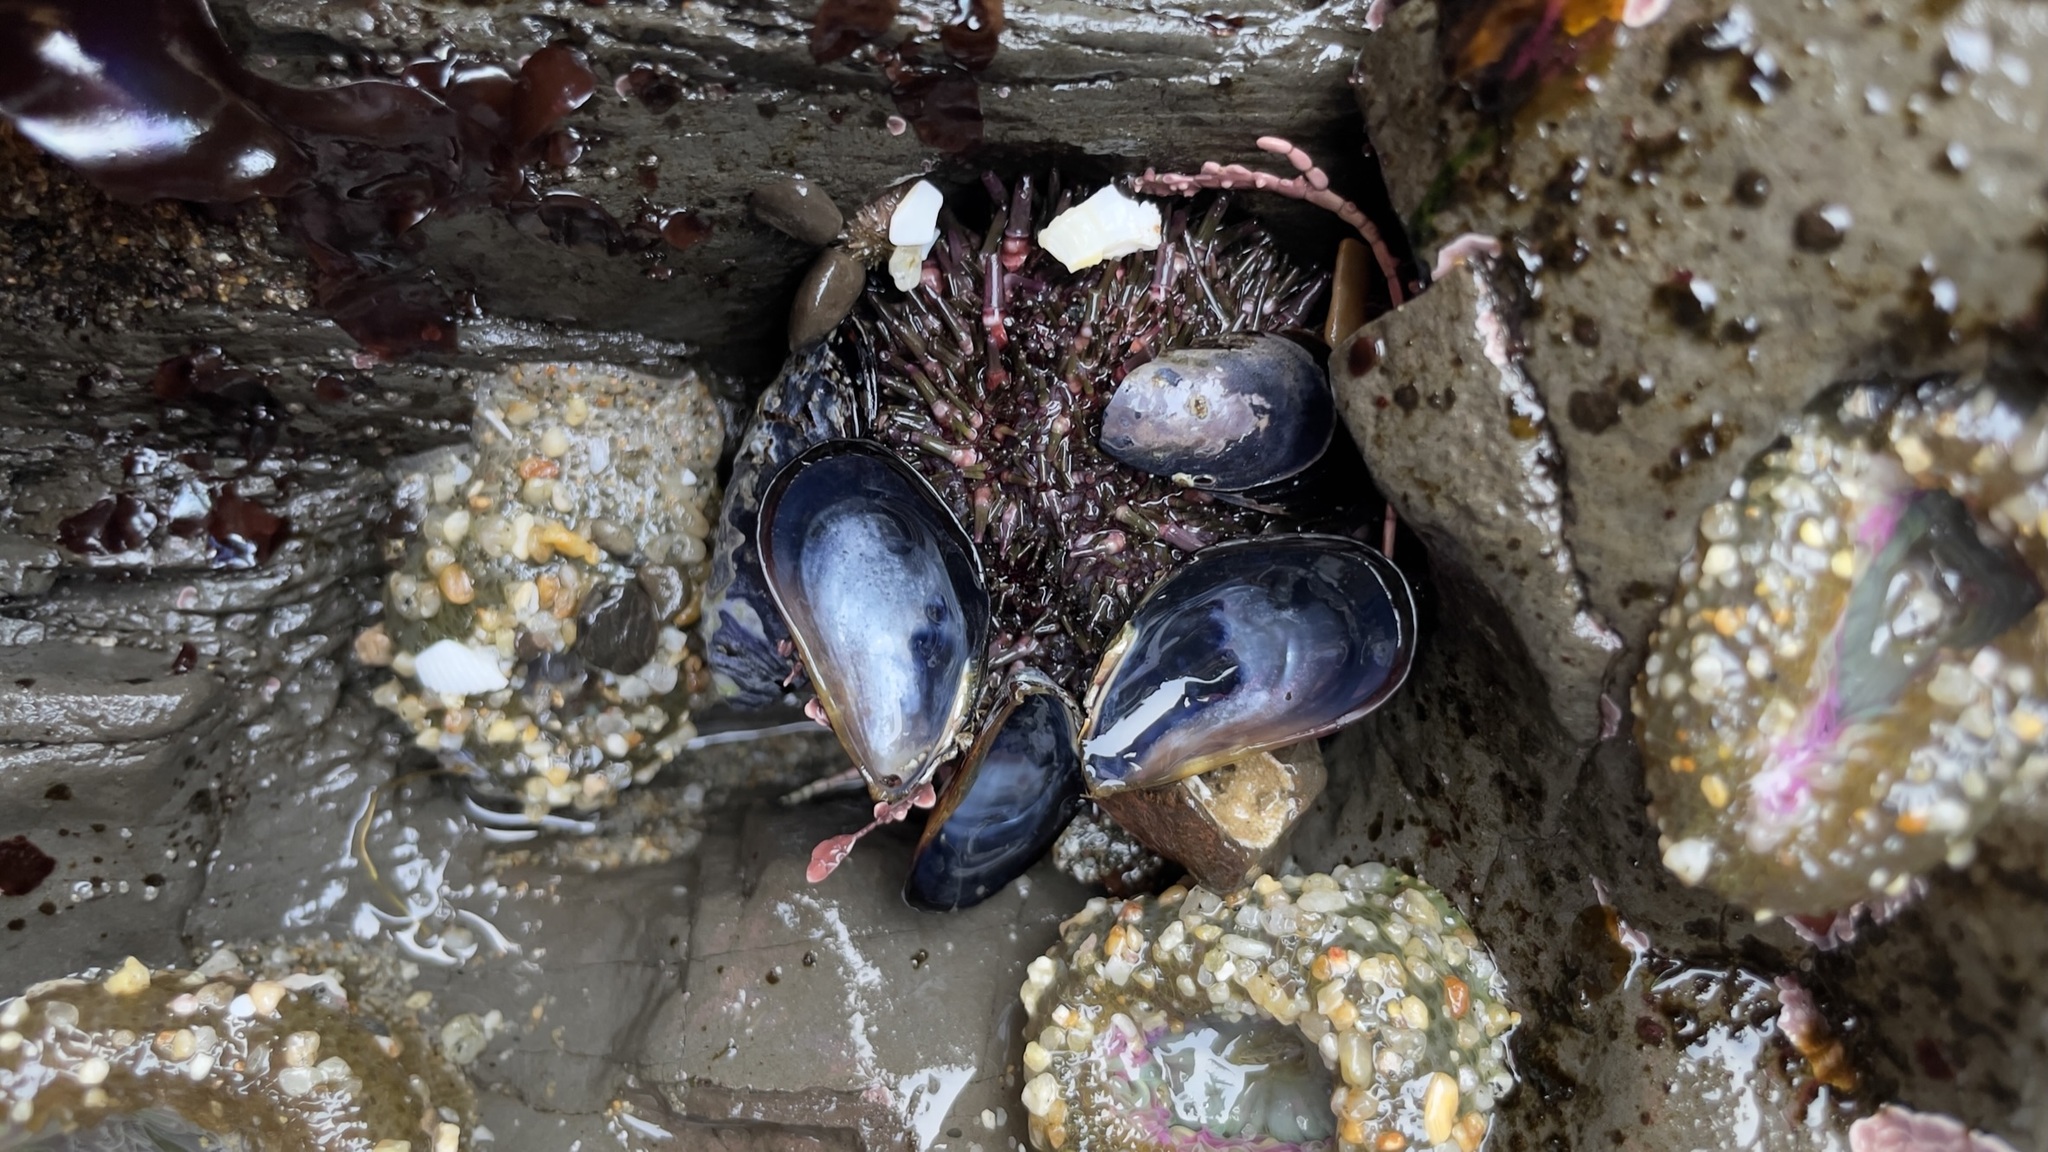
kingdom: Animalia
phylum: Echinodermata
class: Echinoidea
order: Camarodonta
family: Strongylocentrotidae
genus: Strongylocentrotus
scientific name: Strongylocentrotus purpuratus
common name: Purple sea urchin
